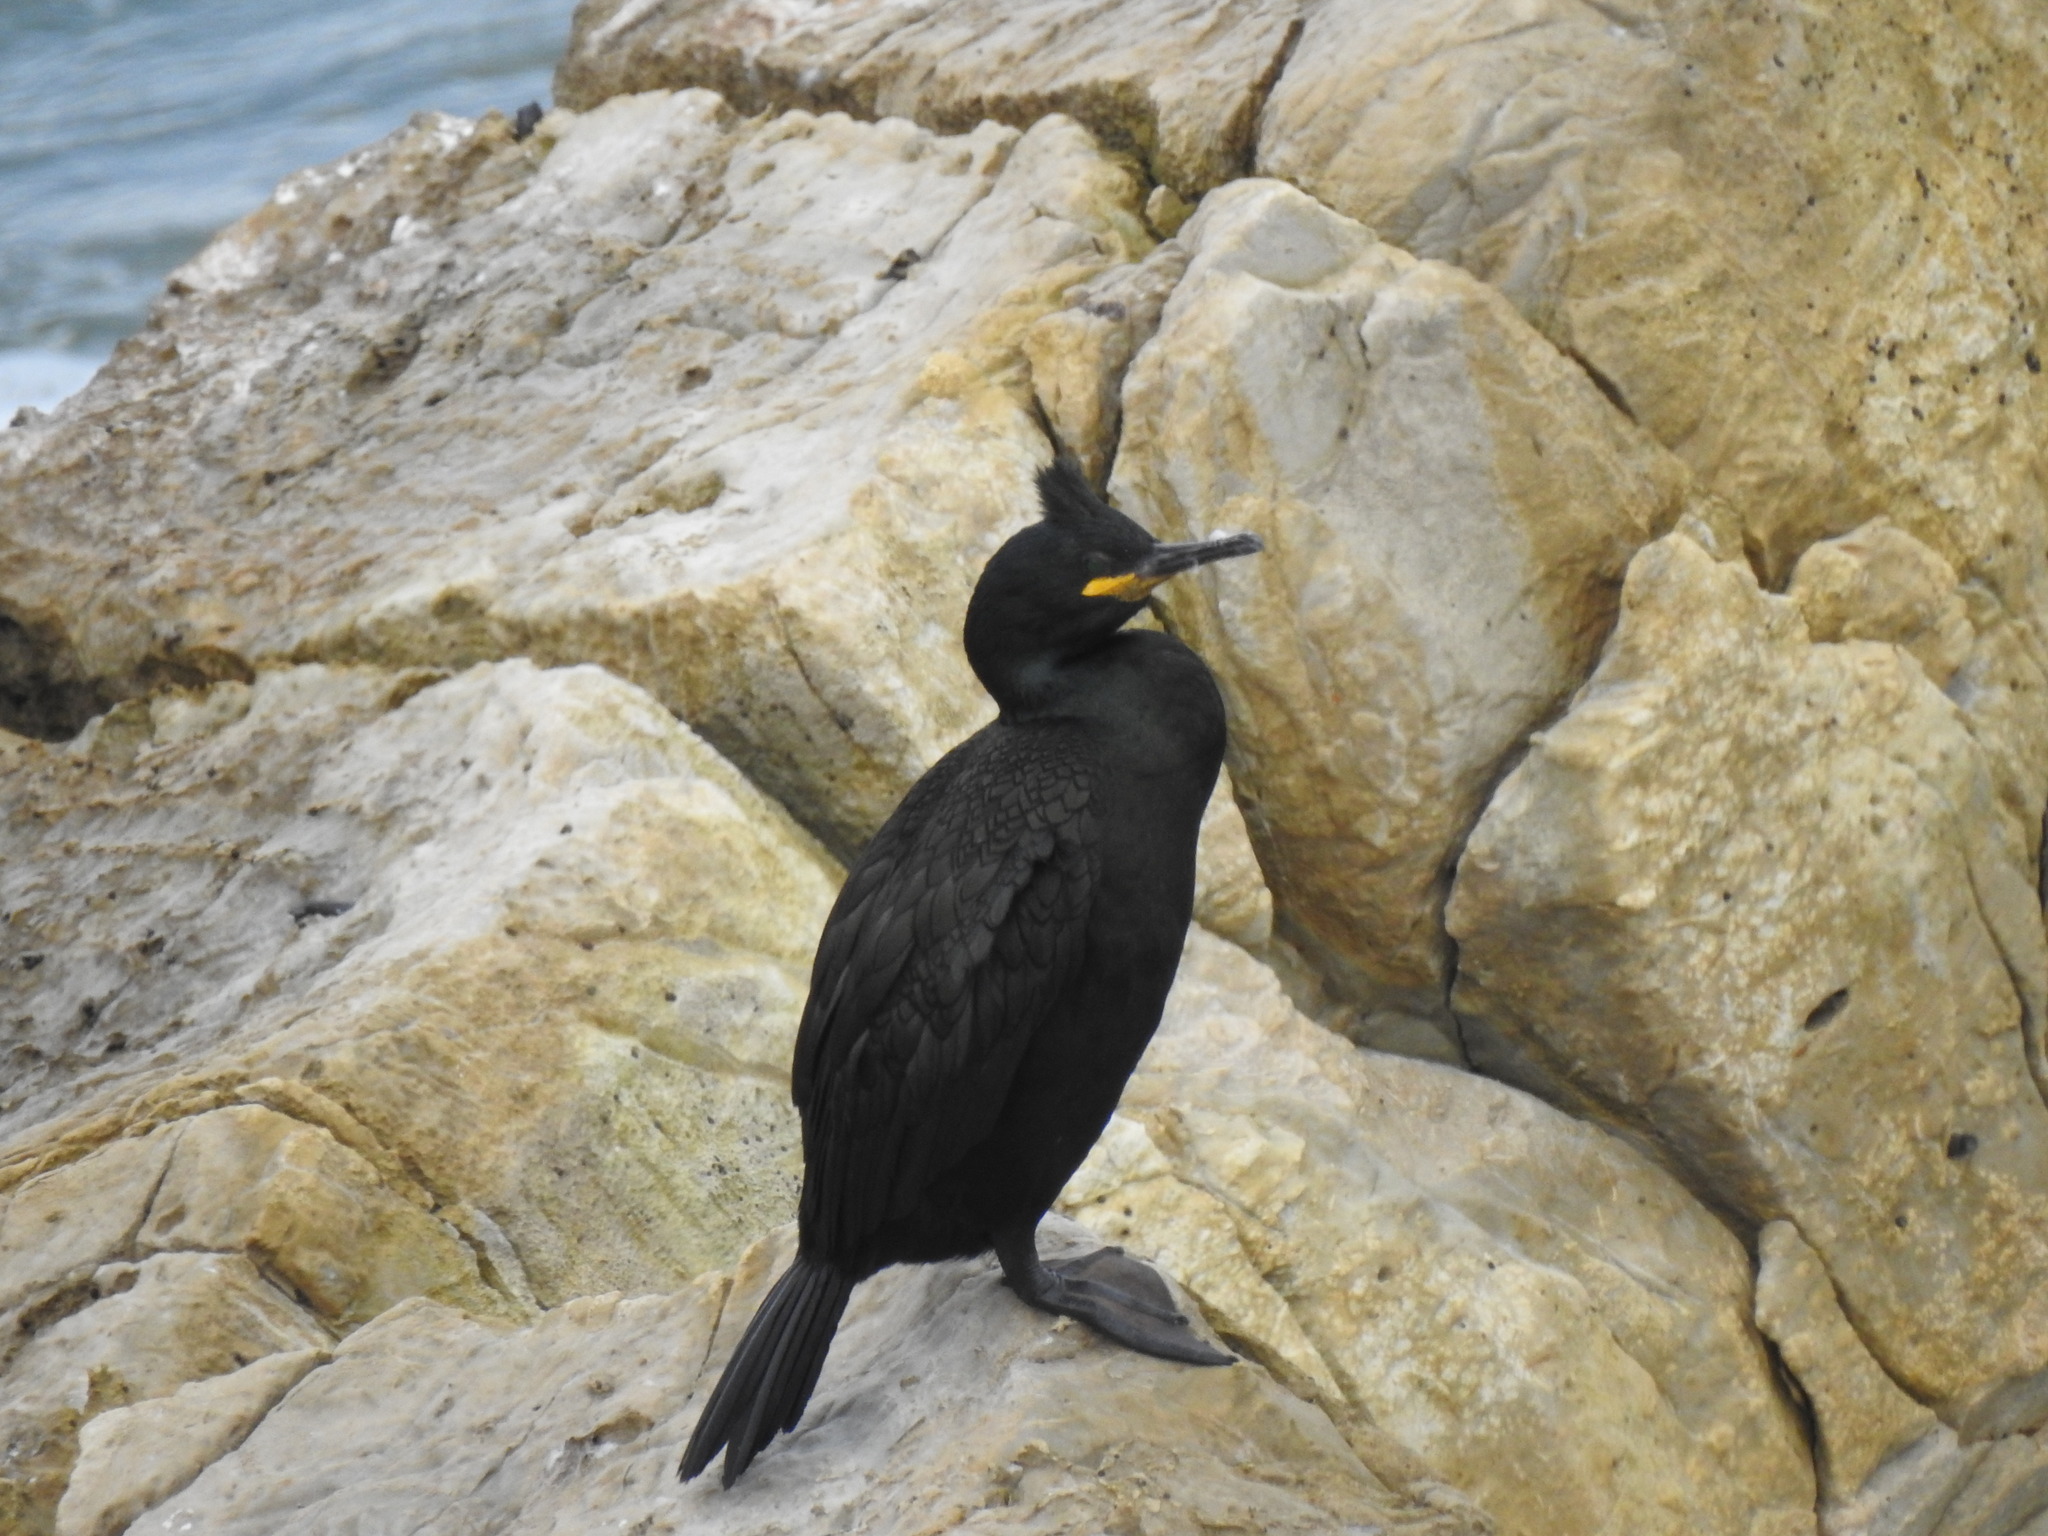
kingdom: Animalia
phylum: Chordata
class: Aves
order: Suliformes
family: Phalacrocoracidae
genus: Phalacrocorax
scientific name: Phalacrocorax aristotelis
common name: European shag
